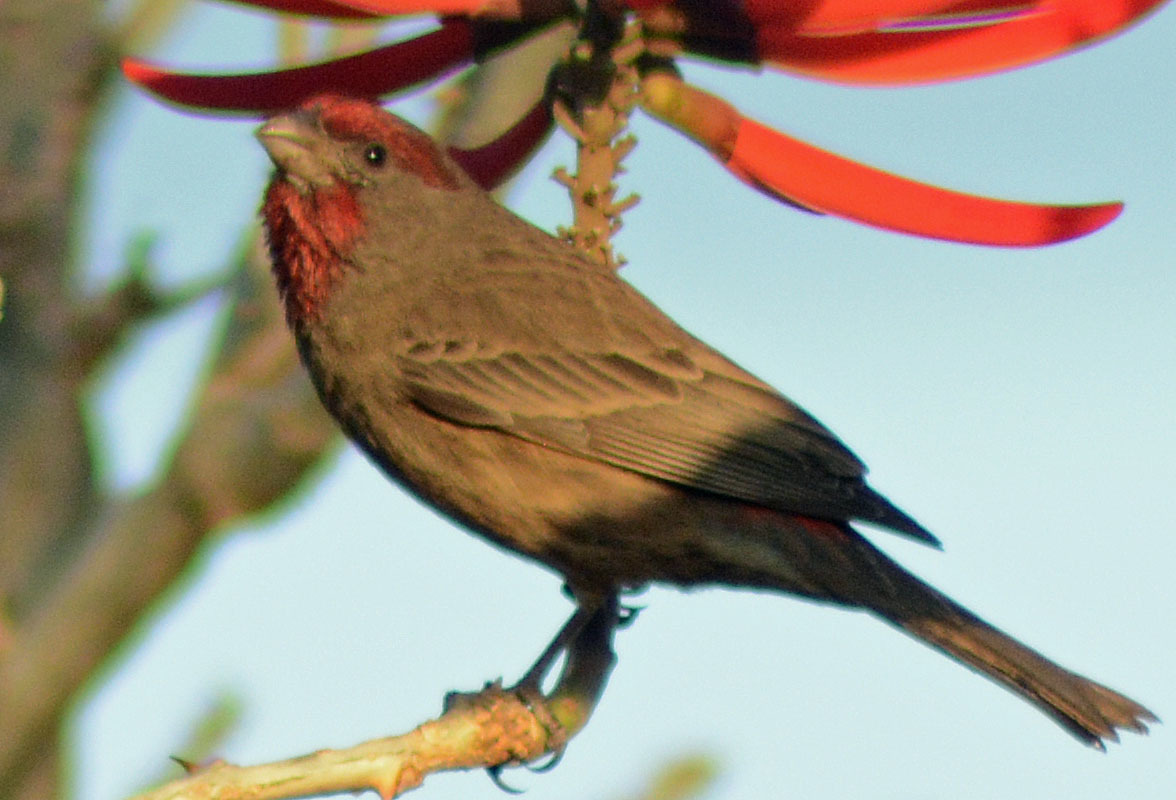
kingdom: Animalia
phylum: Chordata
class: Aves
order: Passeriformes
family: Fringillidae
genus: Haemorhous
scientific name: Haemorhous mexicanus
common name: House finch
